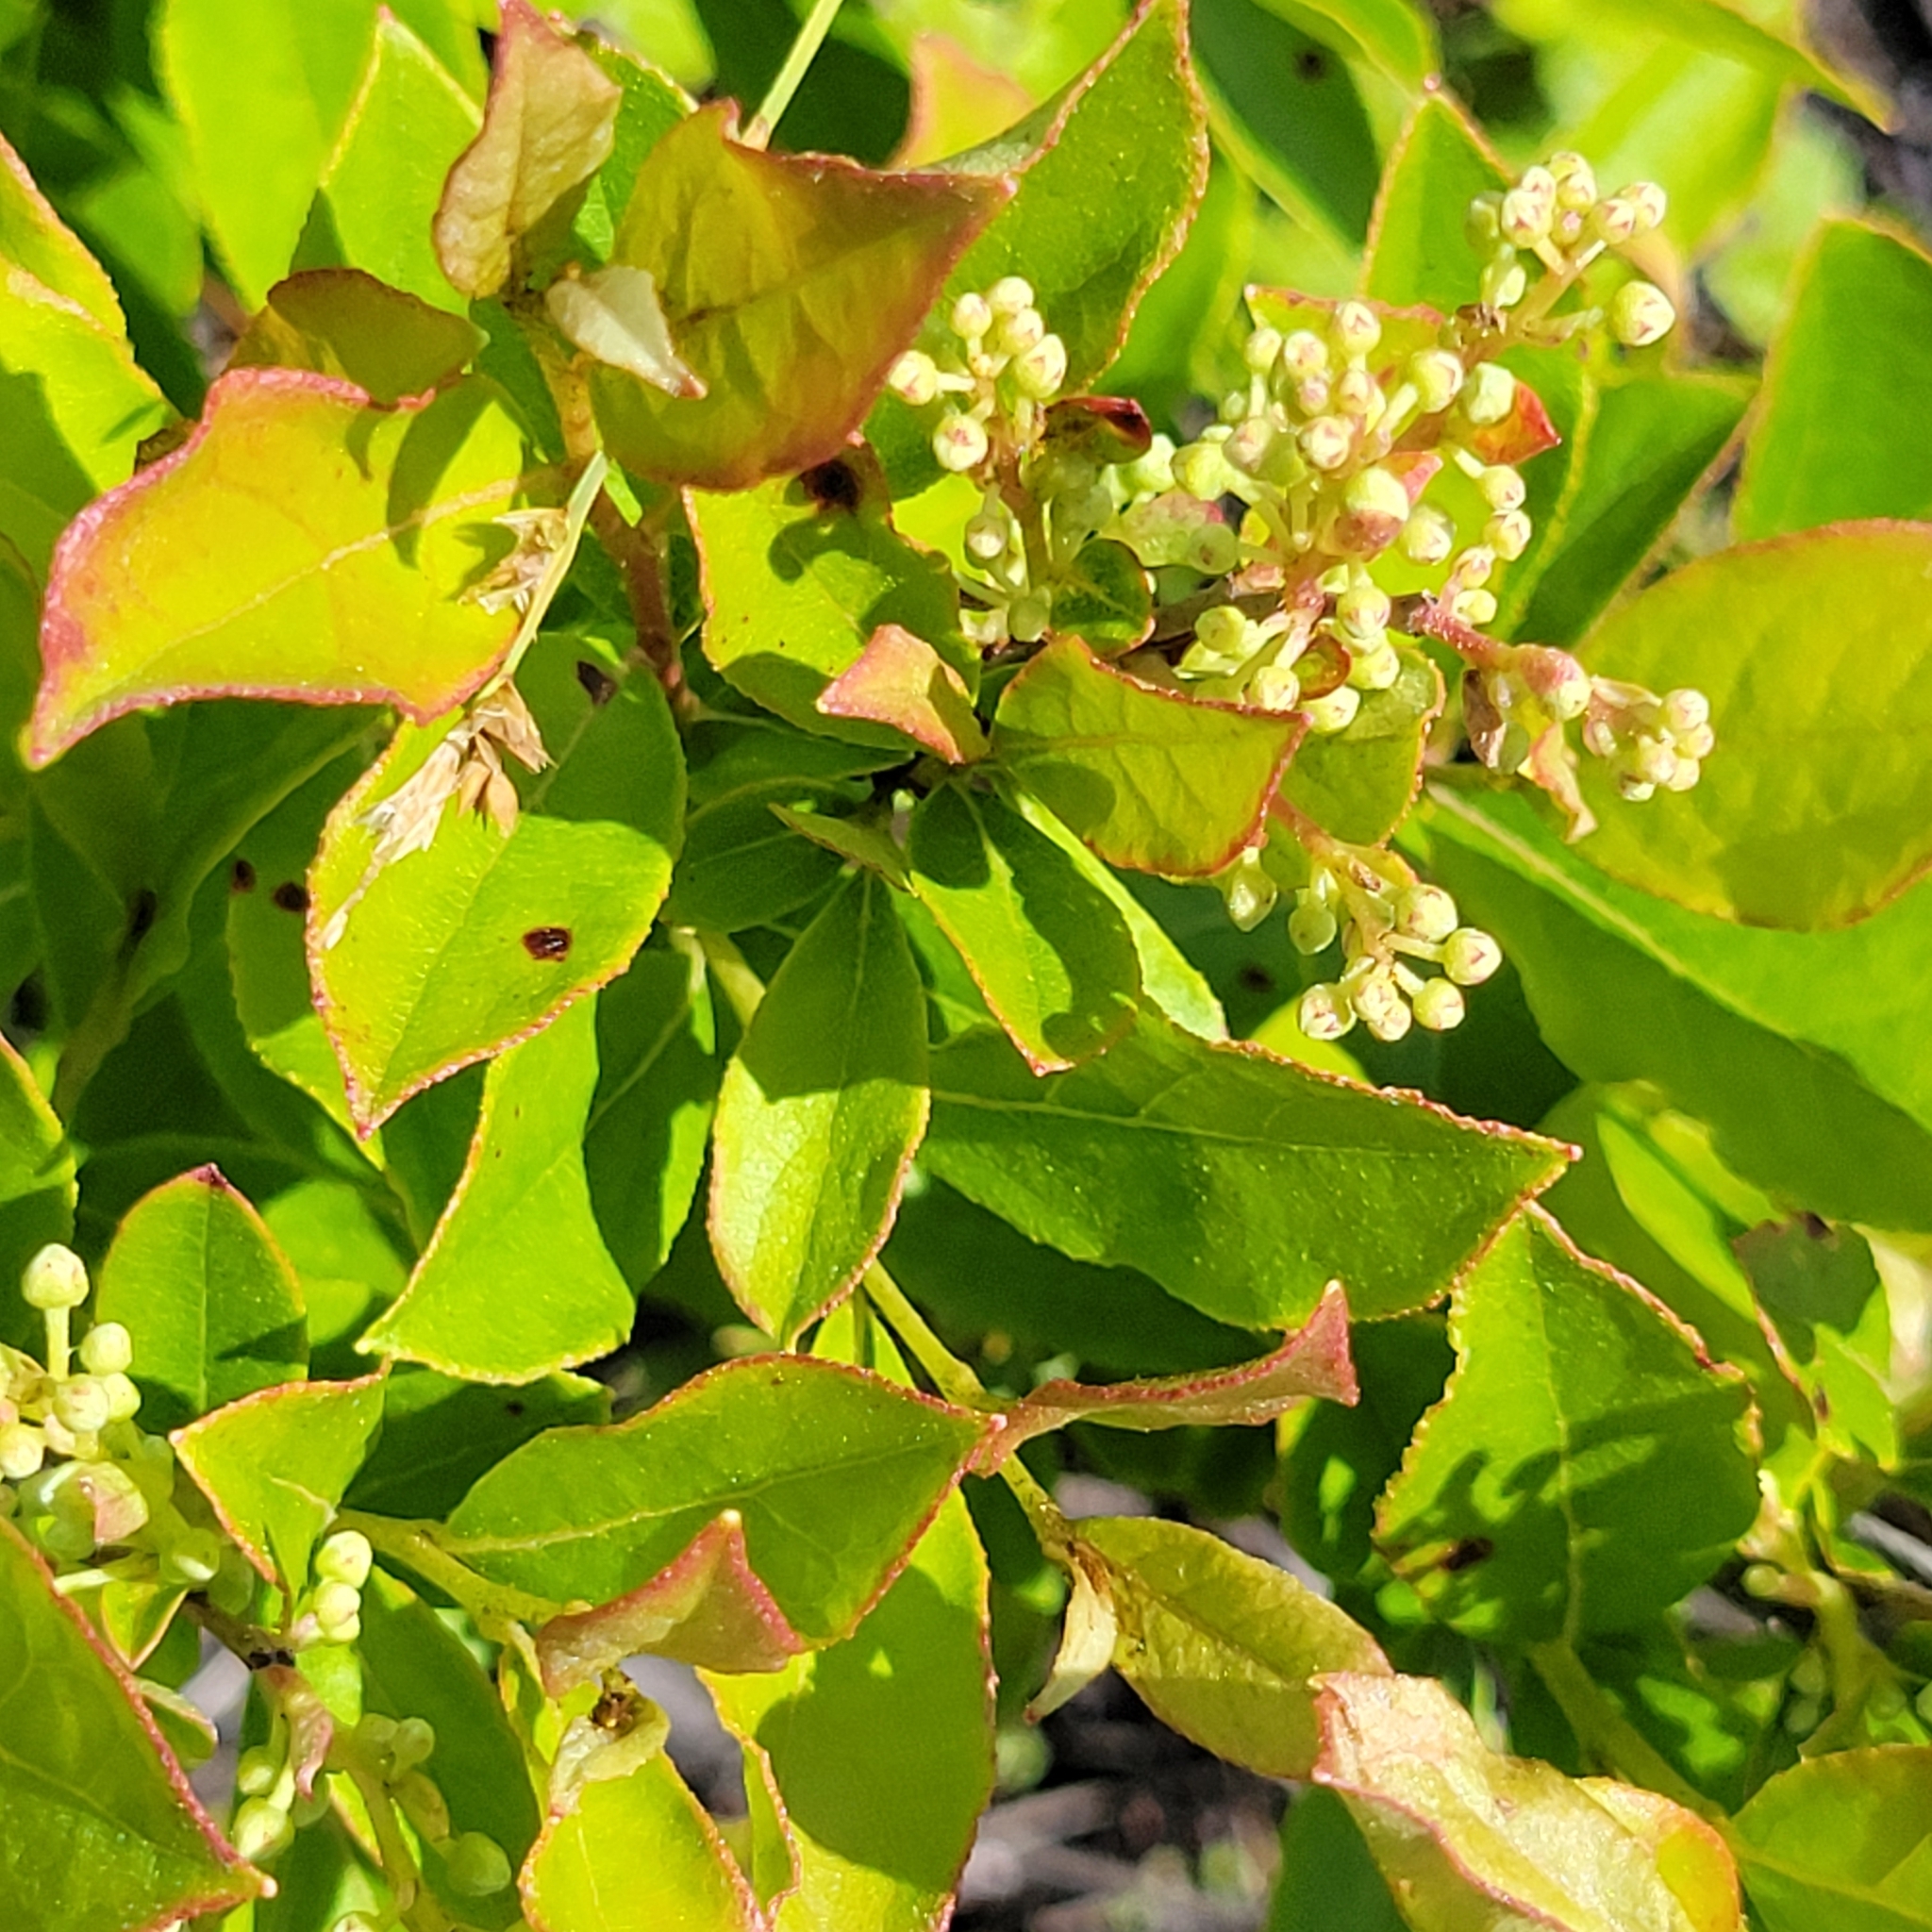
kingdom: Plantae
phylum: Tracheophyta
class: Magnoliopsida
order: Ericales
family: Ericaceae
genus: Lyonia
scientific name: Lyonia ligustrina
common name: Maleberry
